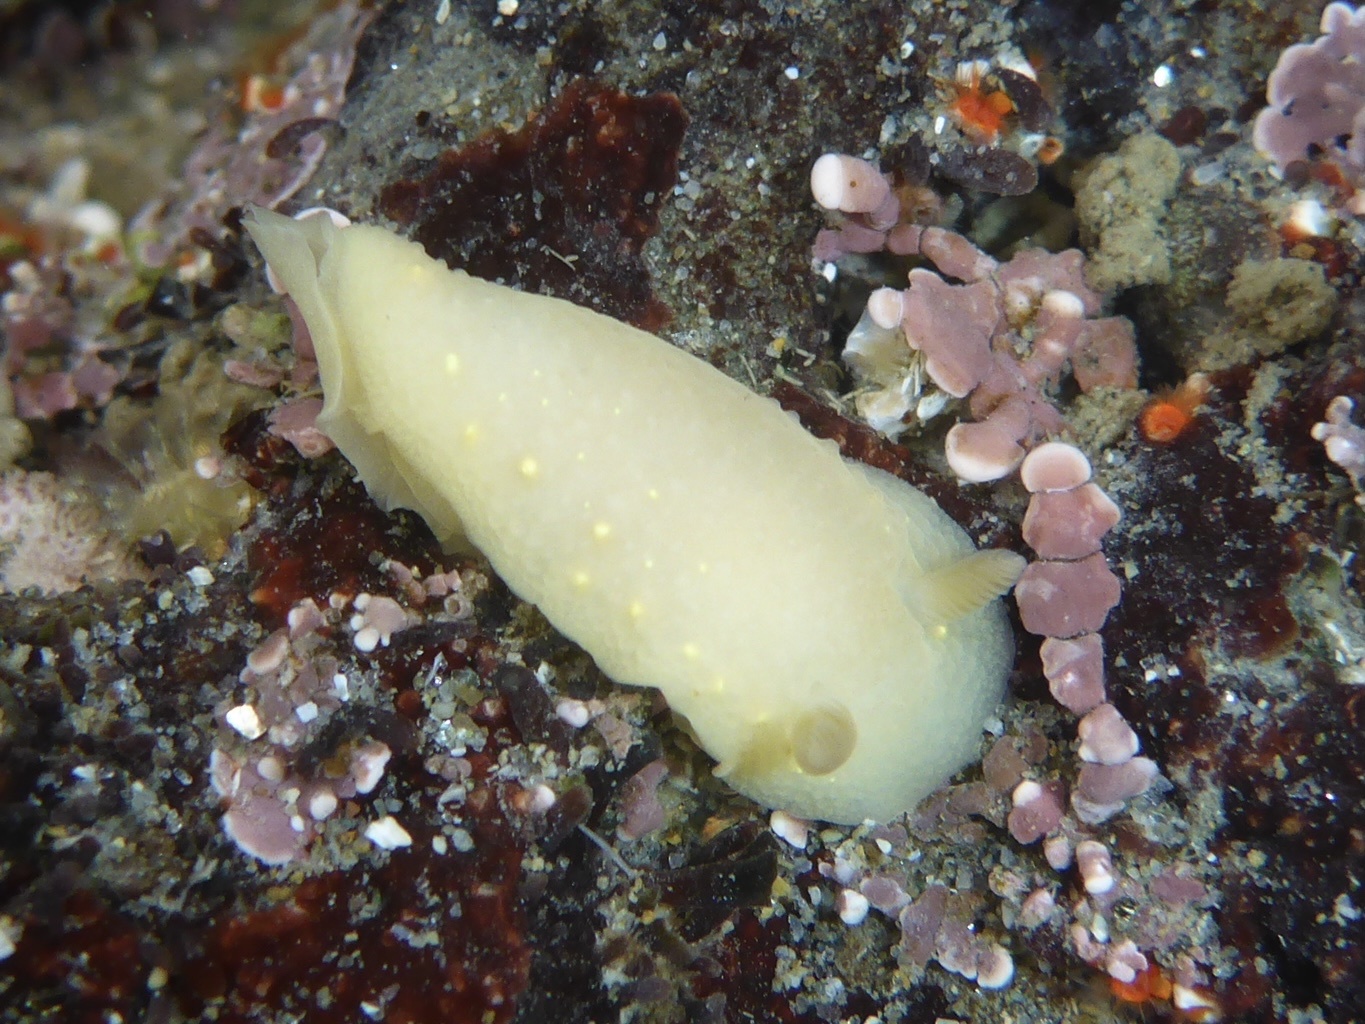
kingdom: Animalia
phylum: Mollusca
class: Gastropoda
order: Nudibranchia
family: Cadlinidae
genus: Cadlina
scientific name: Cadlina modesta
